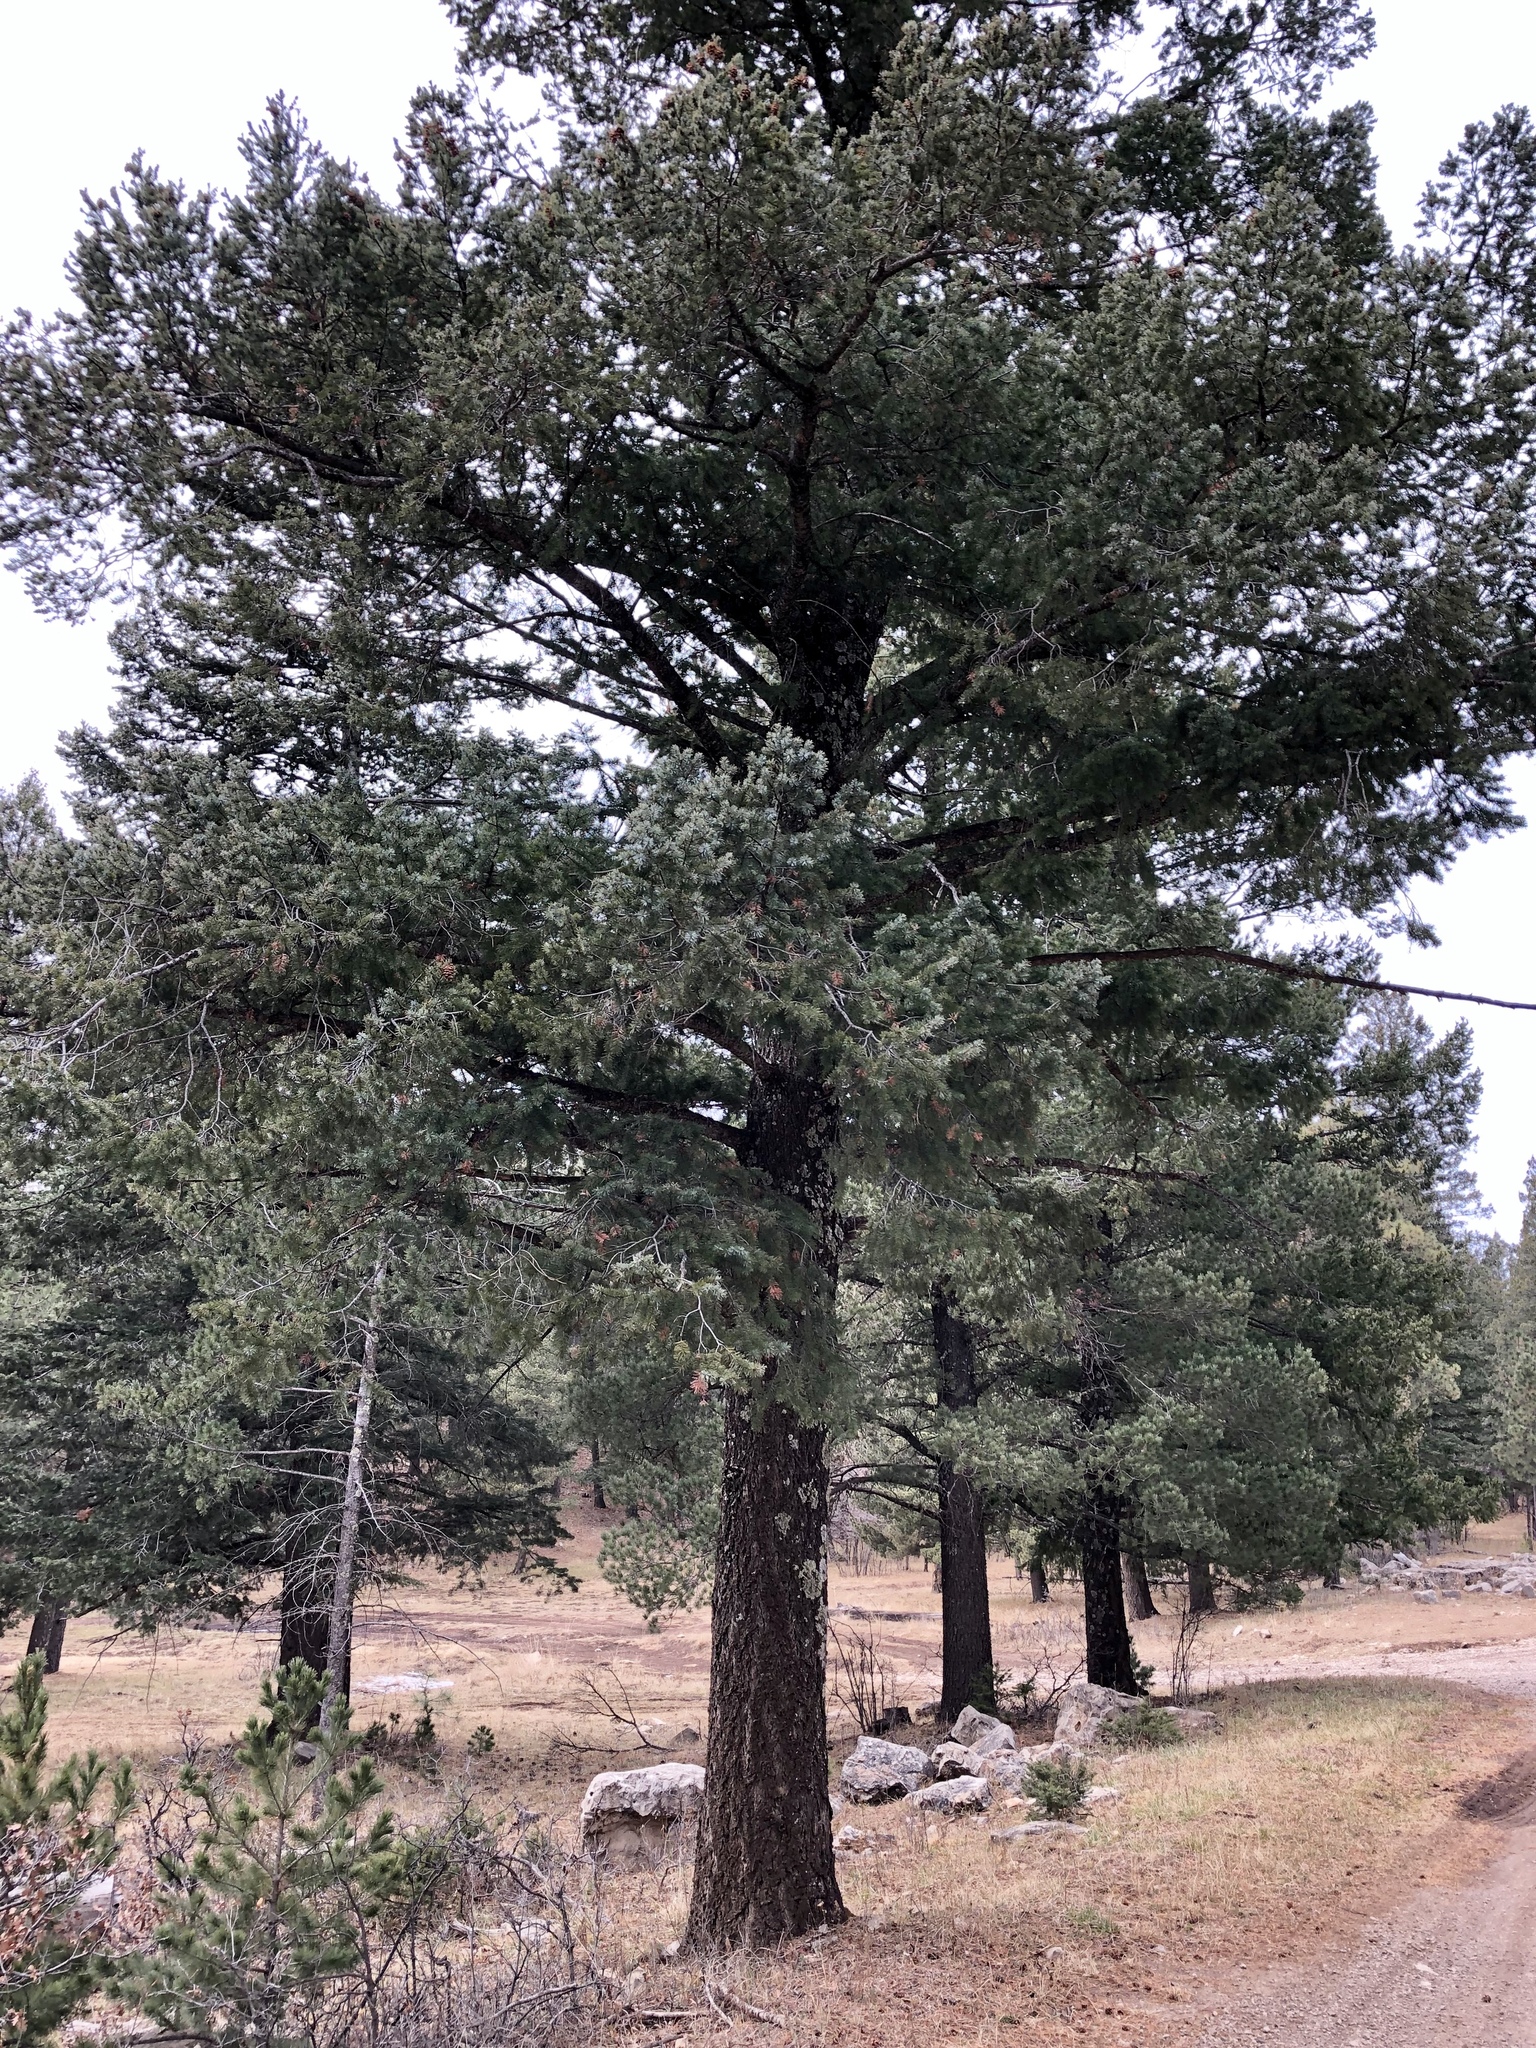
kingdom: Plantae
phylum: Tracheophyta
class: Pinopsida
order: Pinales
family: Pinaceae
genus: Pseudotsuga
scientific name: Pseudotsuga menziesii
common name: Douglas fir
